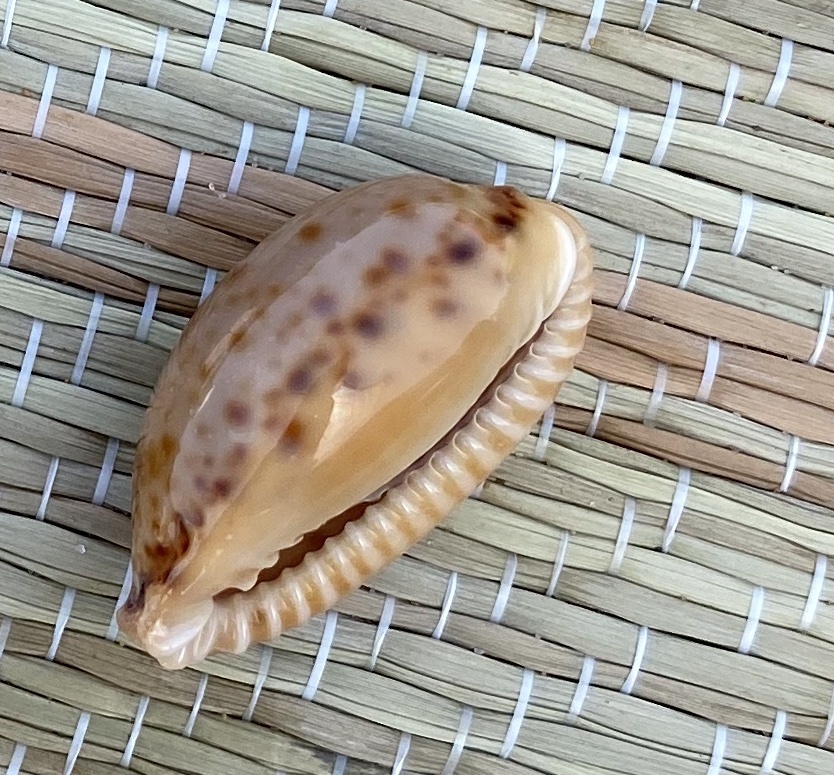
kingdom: Animalia
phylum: Mollusca
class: Gastropoda
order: Littorinimorpha
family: Cypraeidae
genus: Naria
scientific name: Naria spurca
